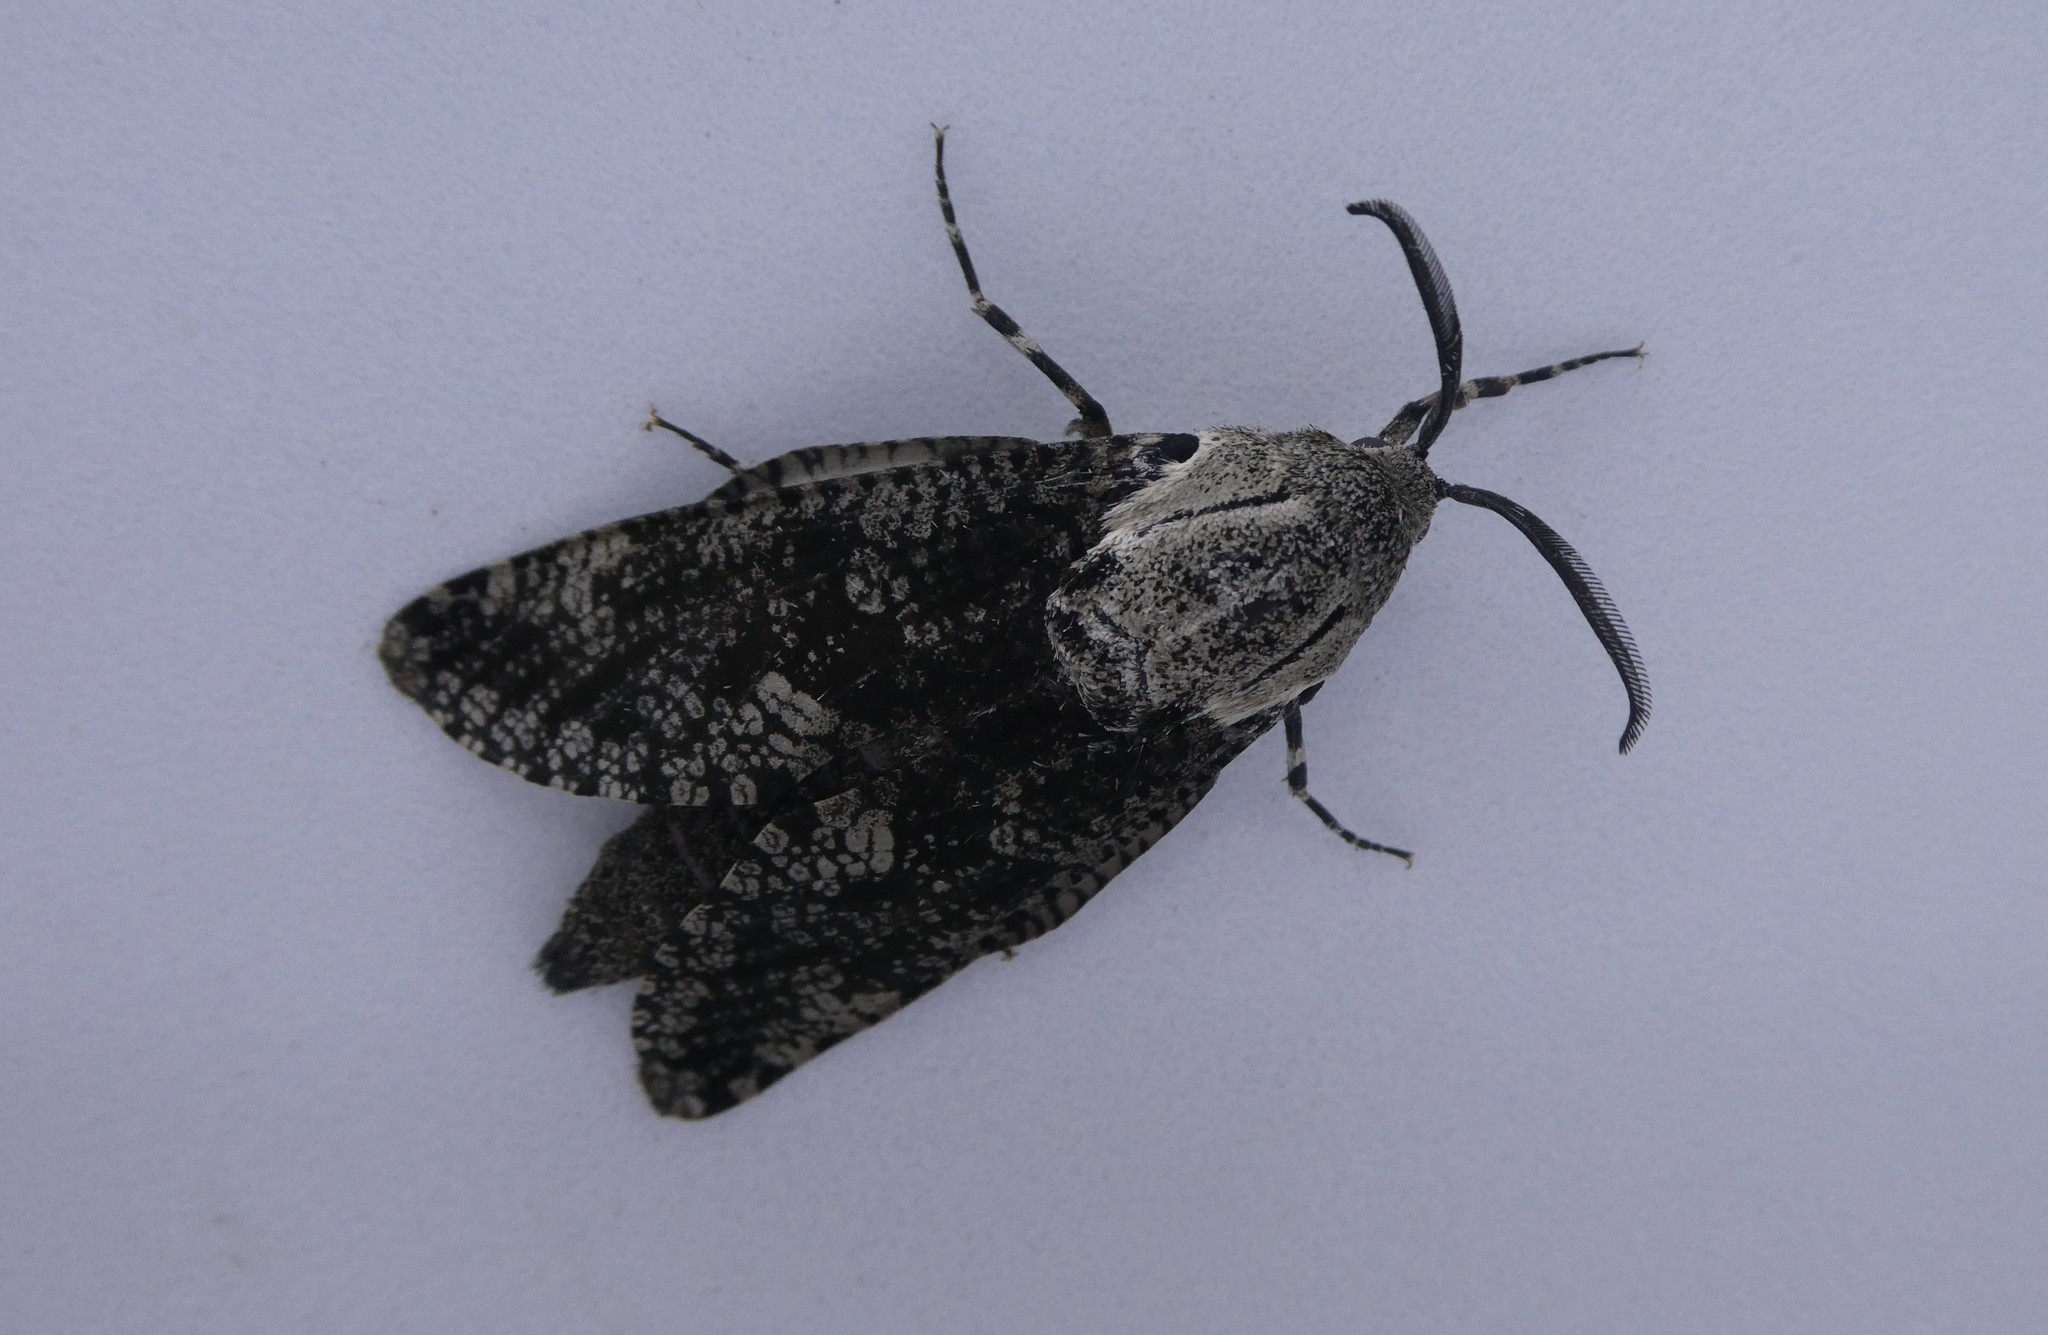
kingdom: Animalia
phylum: Arthropoda
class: Insecta
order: Lepidoptera
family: Cossidae
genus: Prionoxystus
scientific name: Prionoxystus robiniae
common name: Carpenterworm
